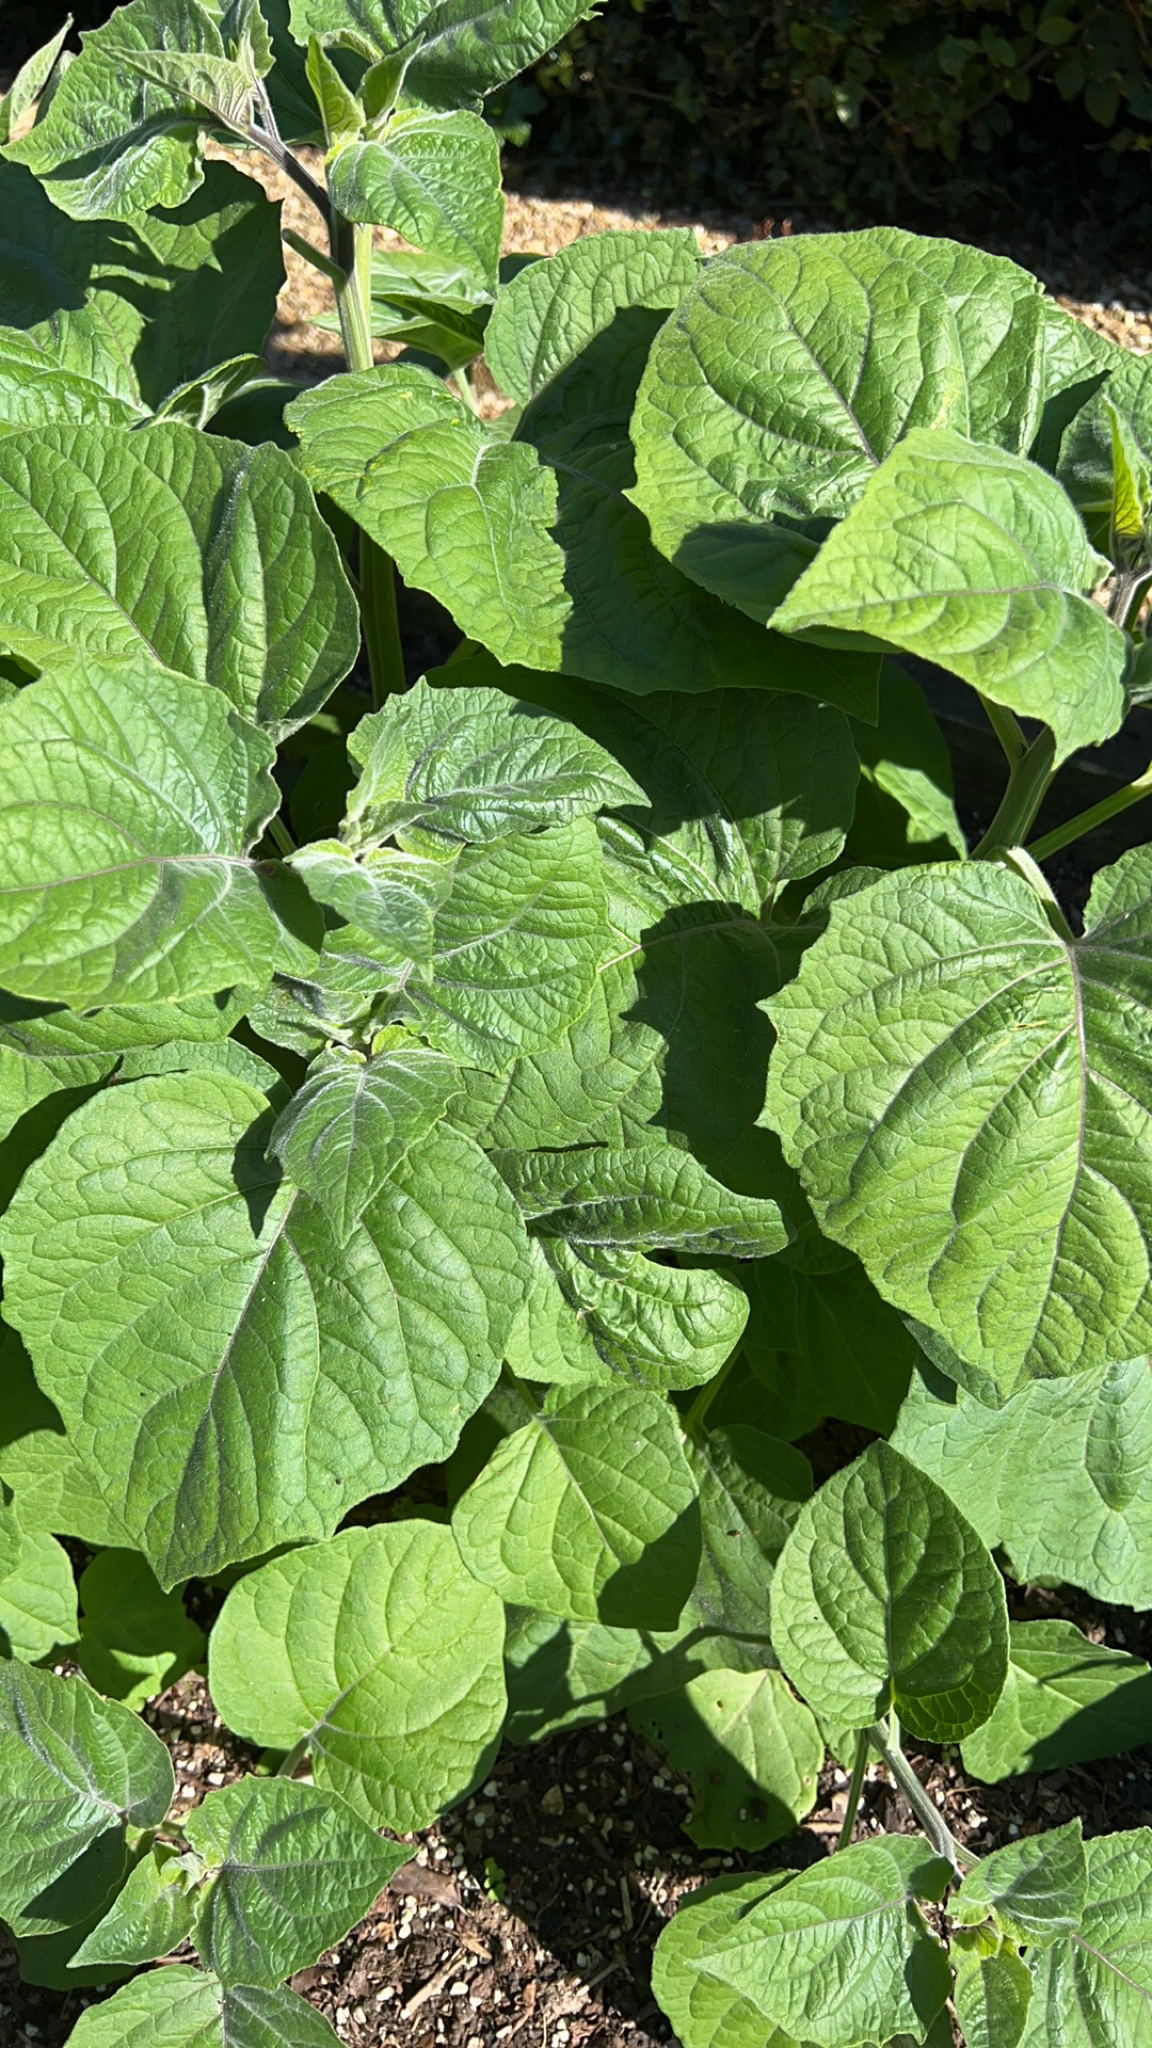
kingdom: Plantae
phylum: Tracheophyta
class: Magnoliopsida
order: Solanales
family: Solanaceae
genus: Physalis
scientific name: Physalis peruviana
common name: Cape-gooseberry
